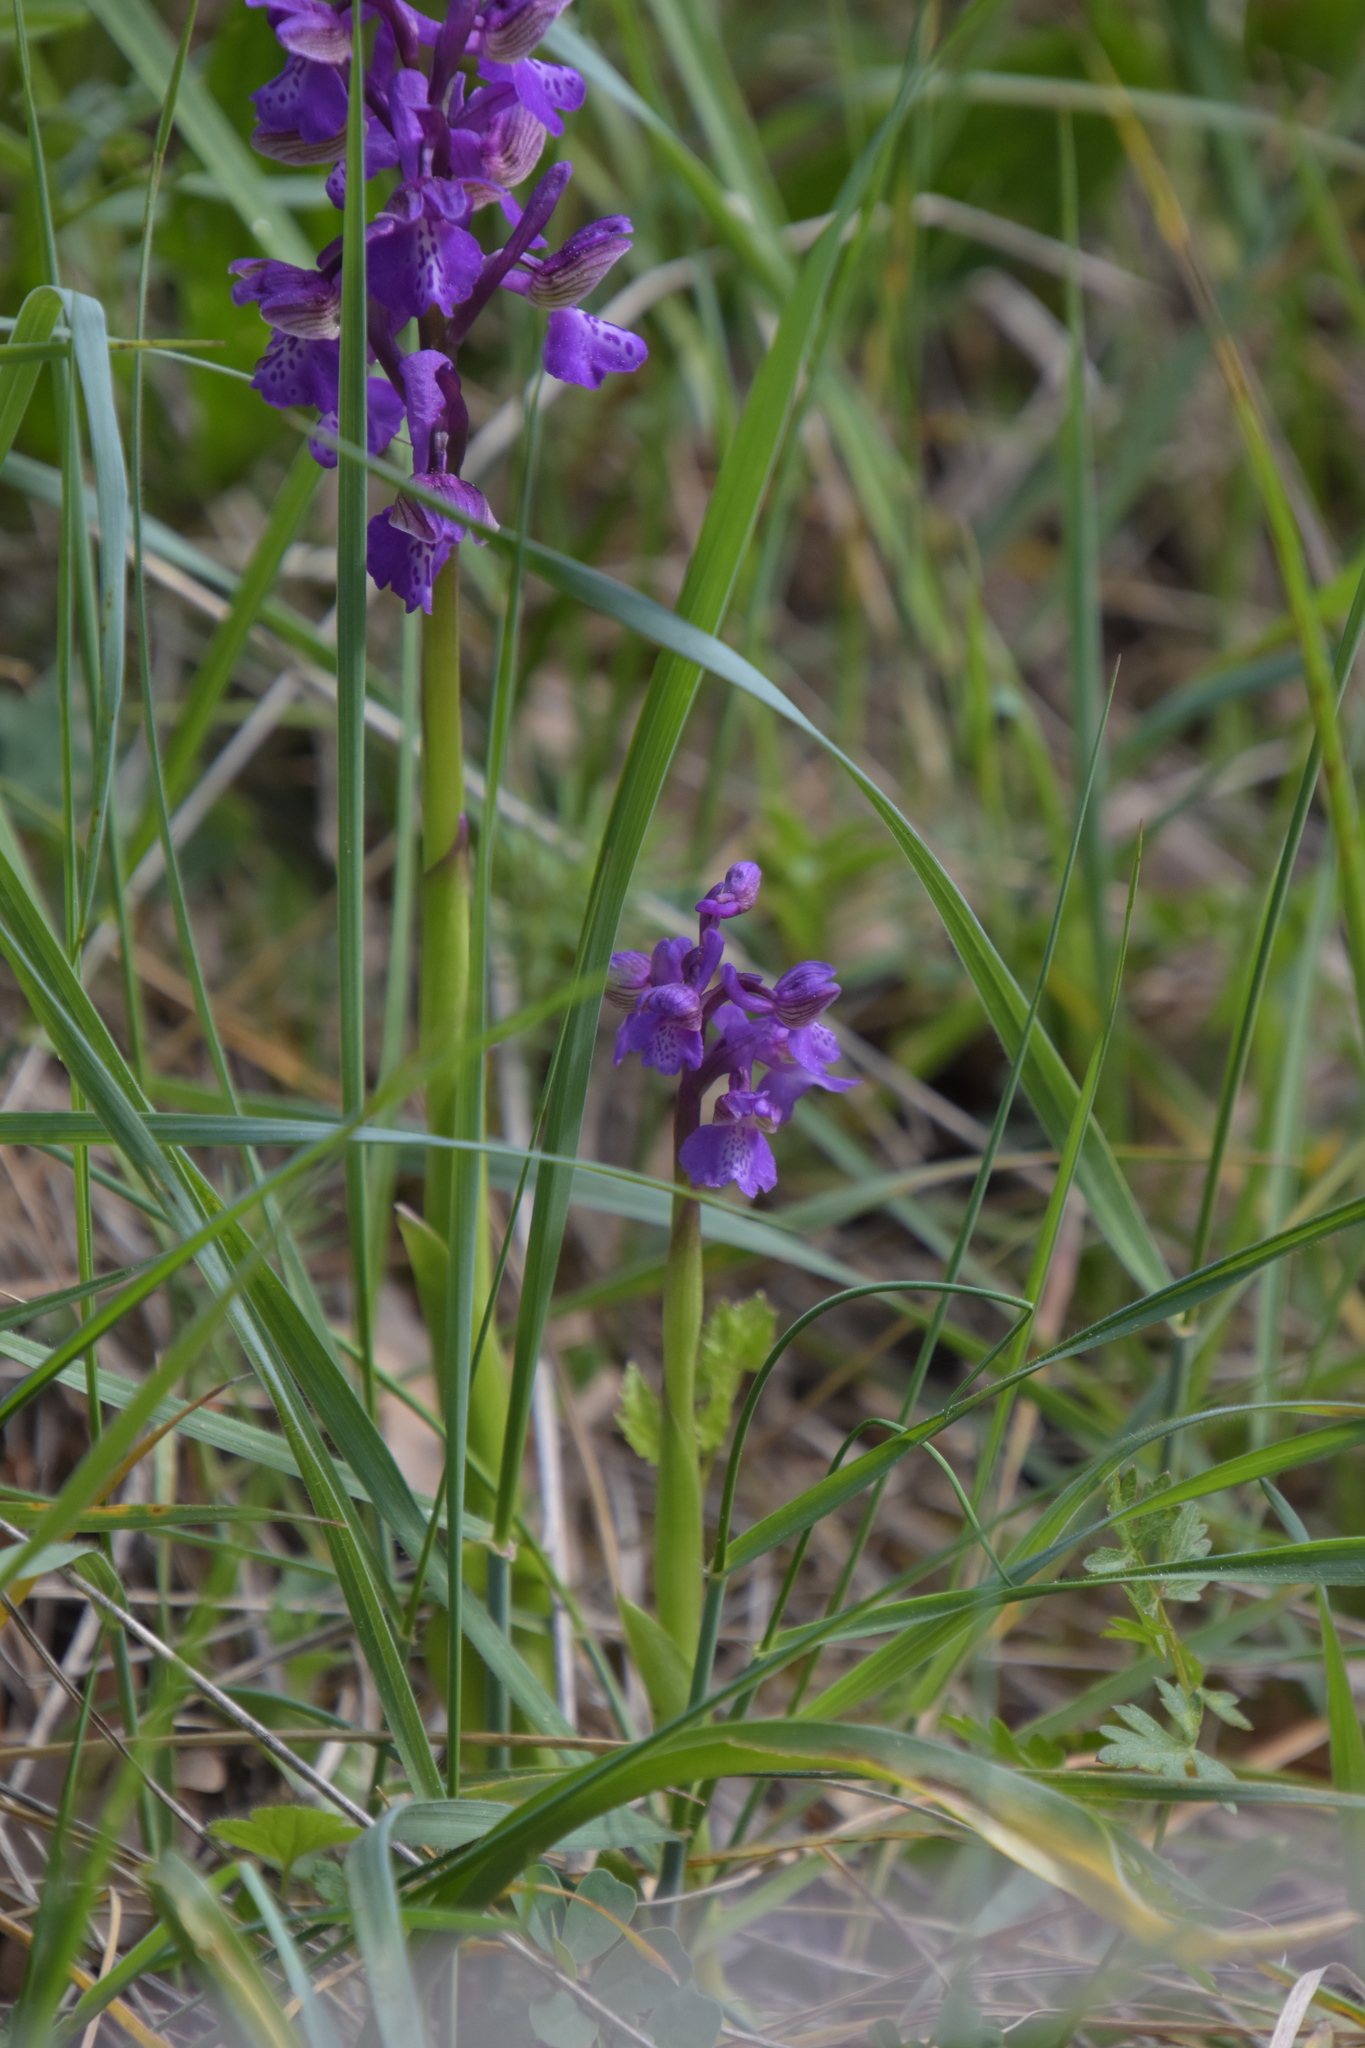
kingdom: Plantae
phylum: Tracheophyta
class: Liliopsida
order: Asparagales
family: Orchidaceae
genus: Anacamptis
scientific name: Anacamptis morio
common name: Green-winged orchid
